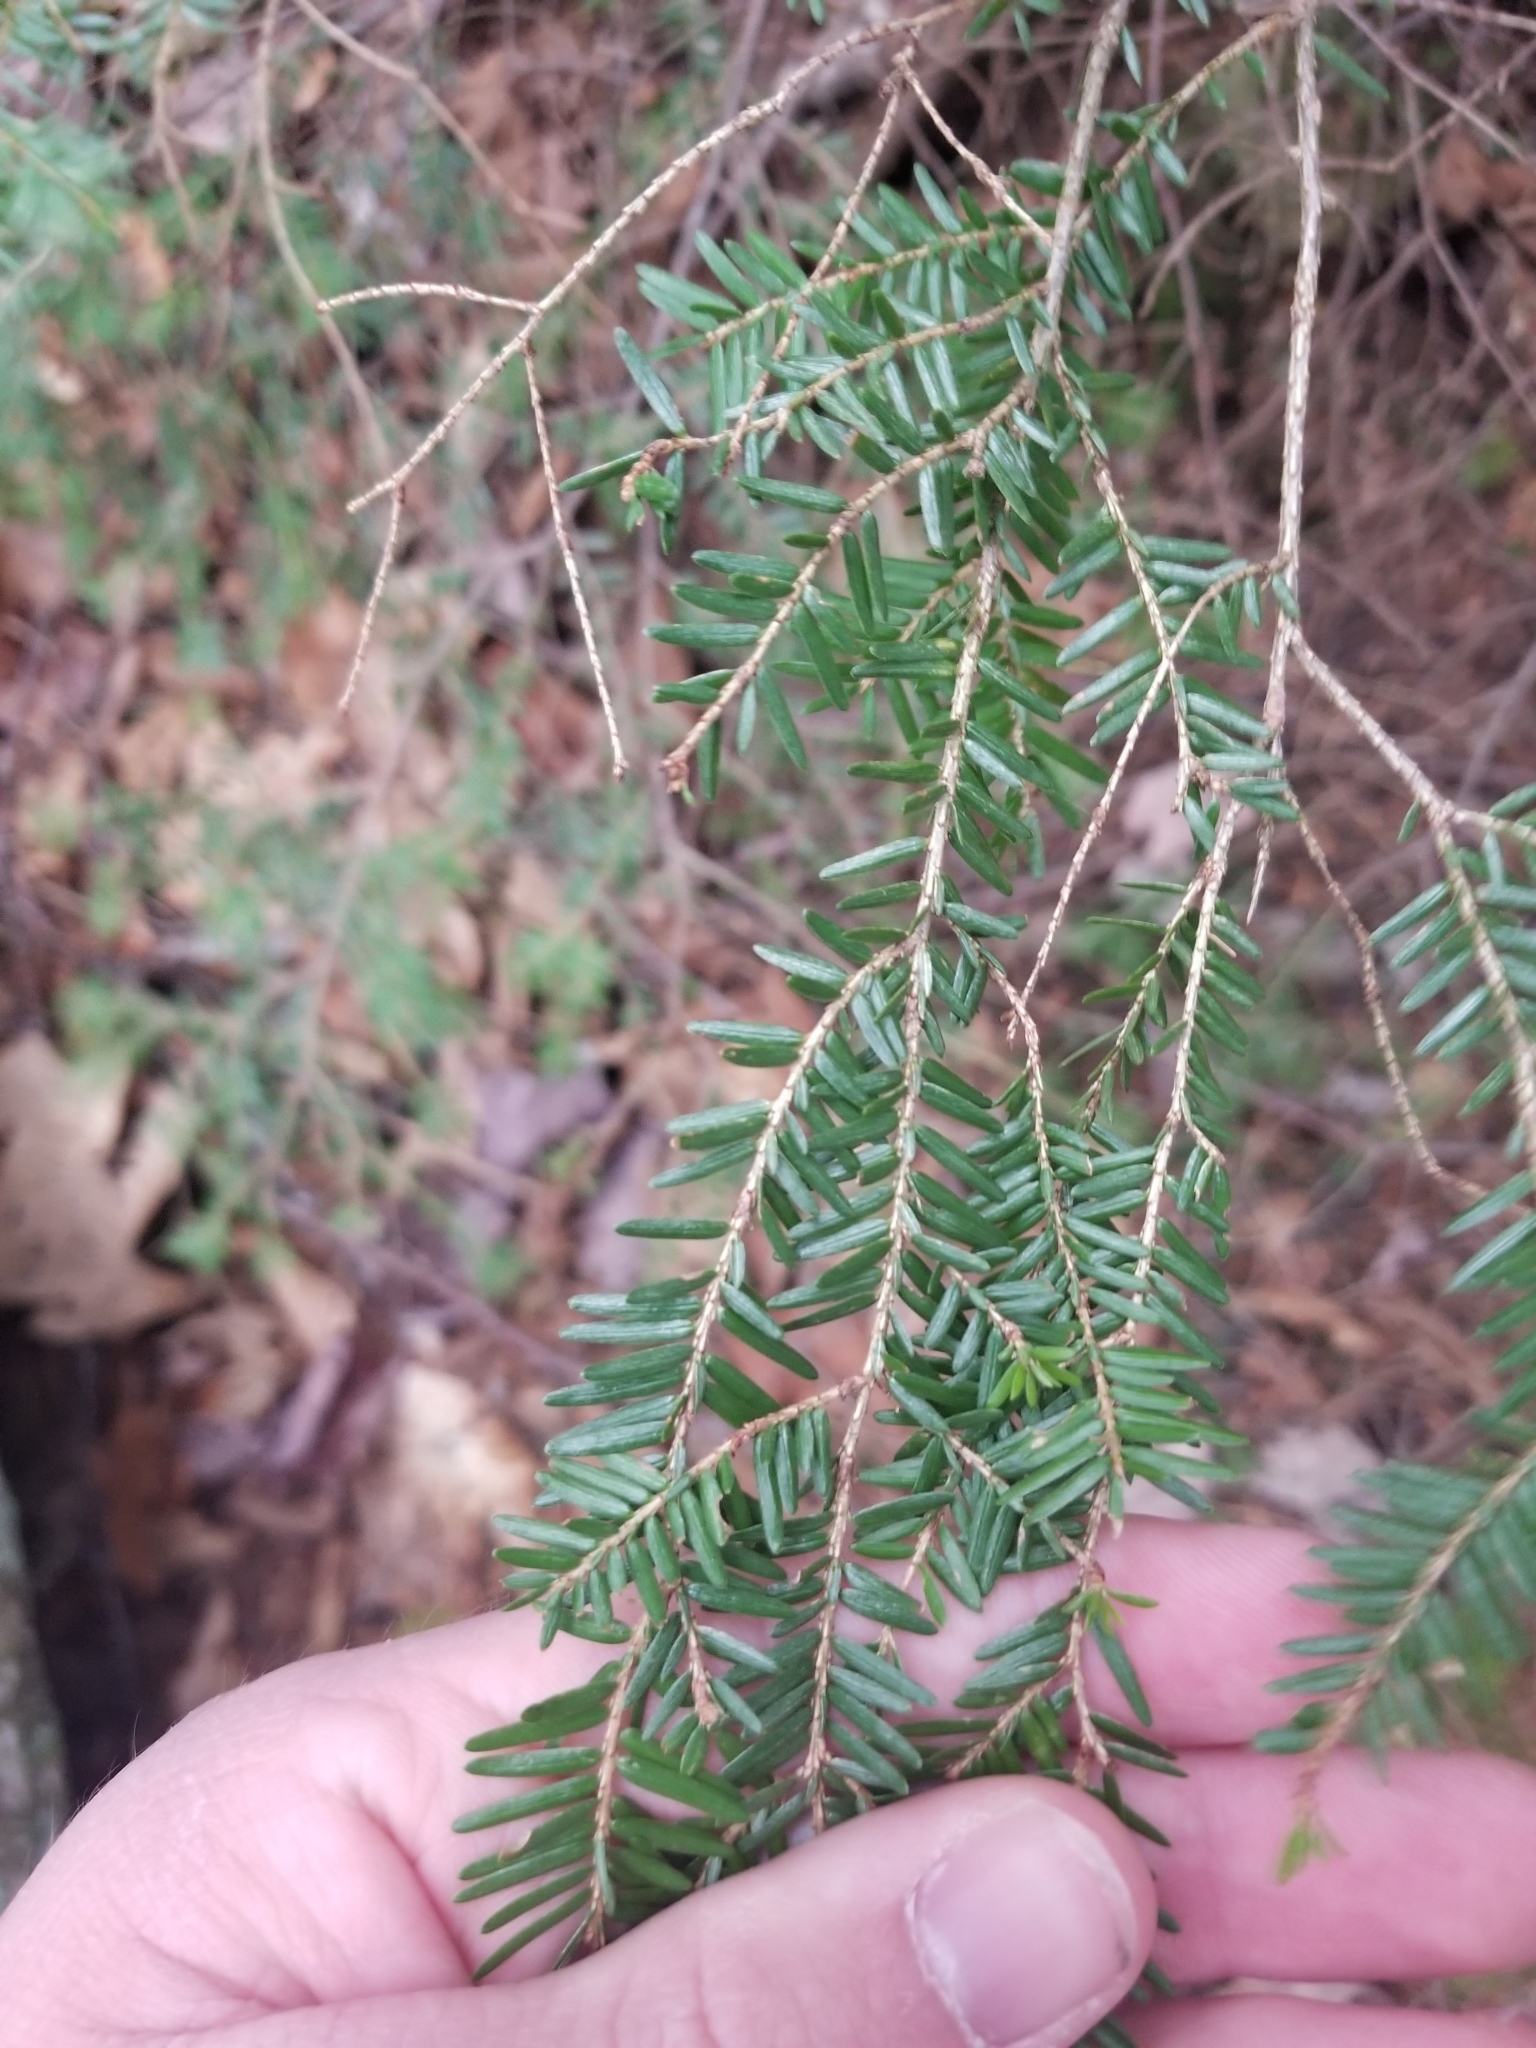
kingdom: Plantae
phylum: Tracheophyta
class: Pinopsida
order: Pinales
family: Pinaceae
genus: Tsuga
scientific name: Tsuga canadensis
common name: Eastern hemlock
